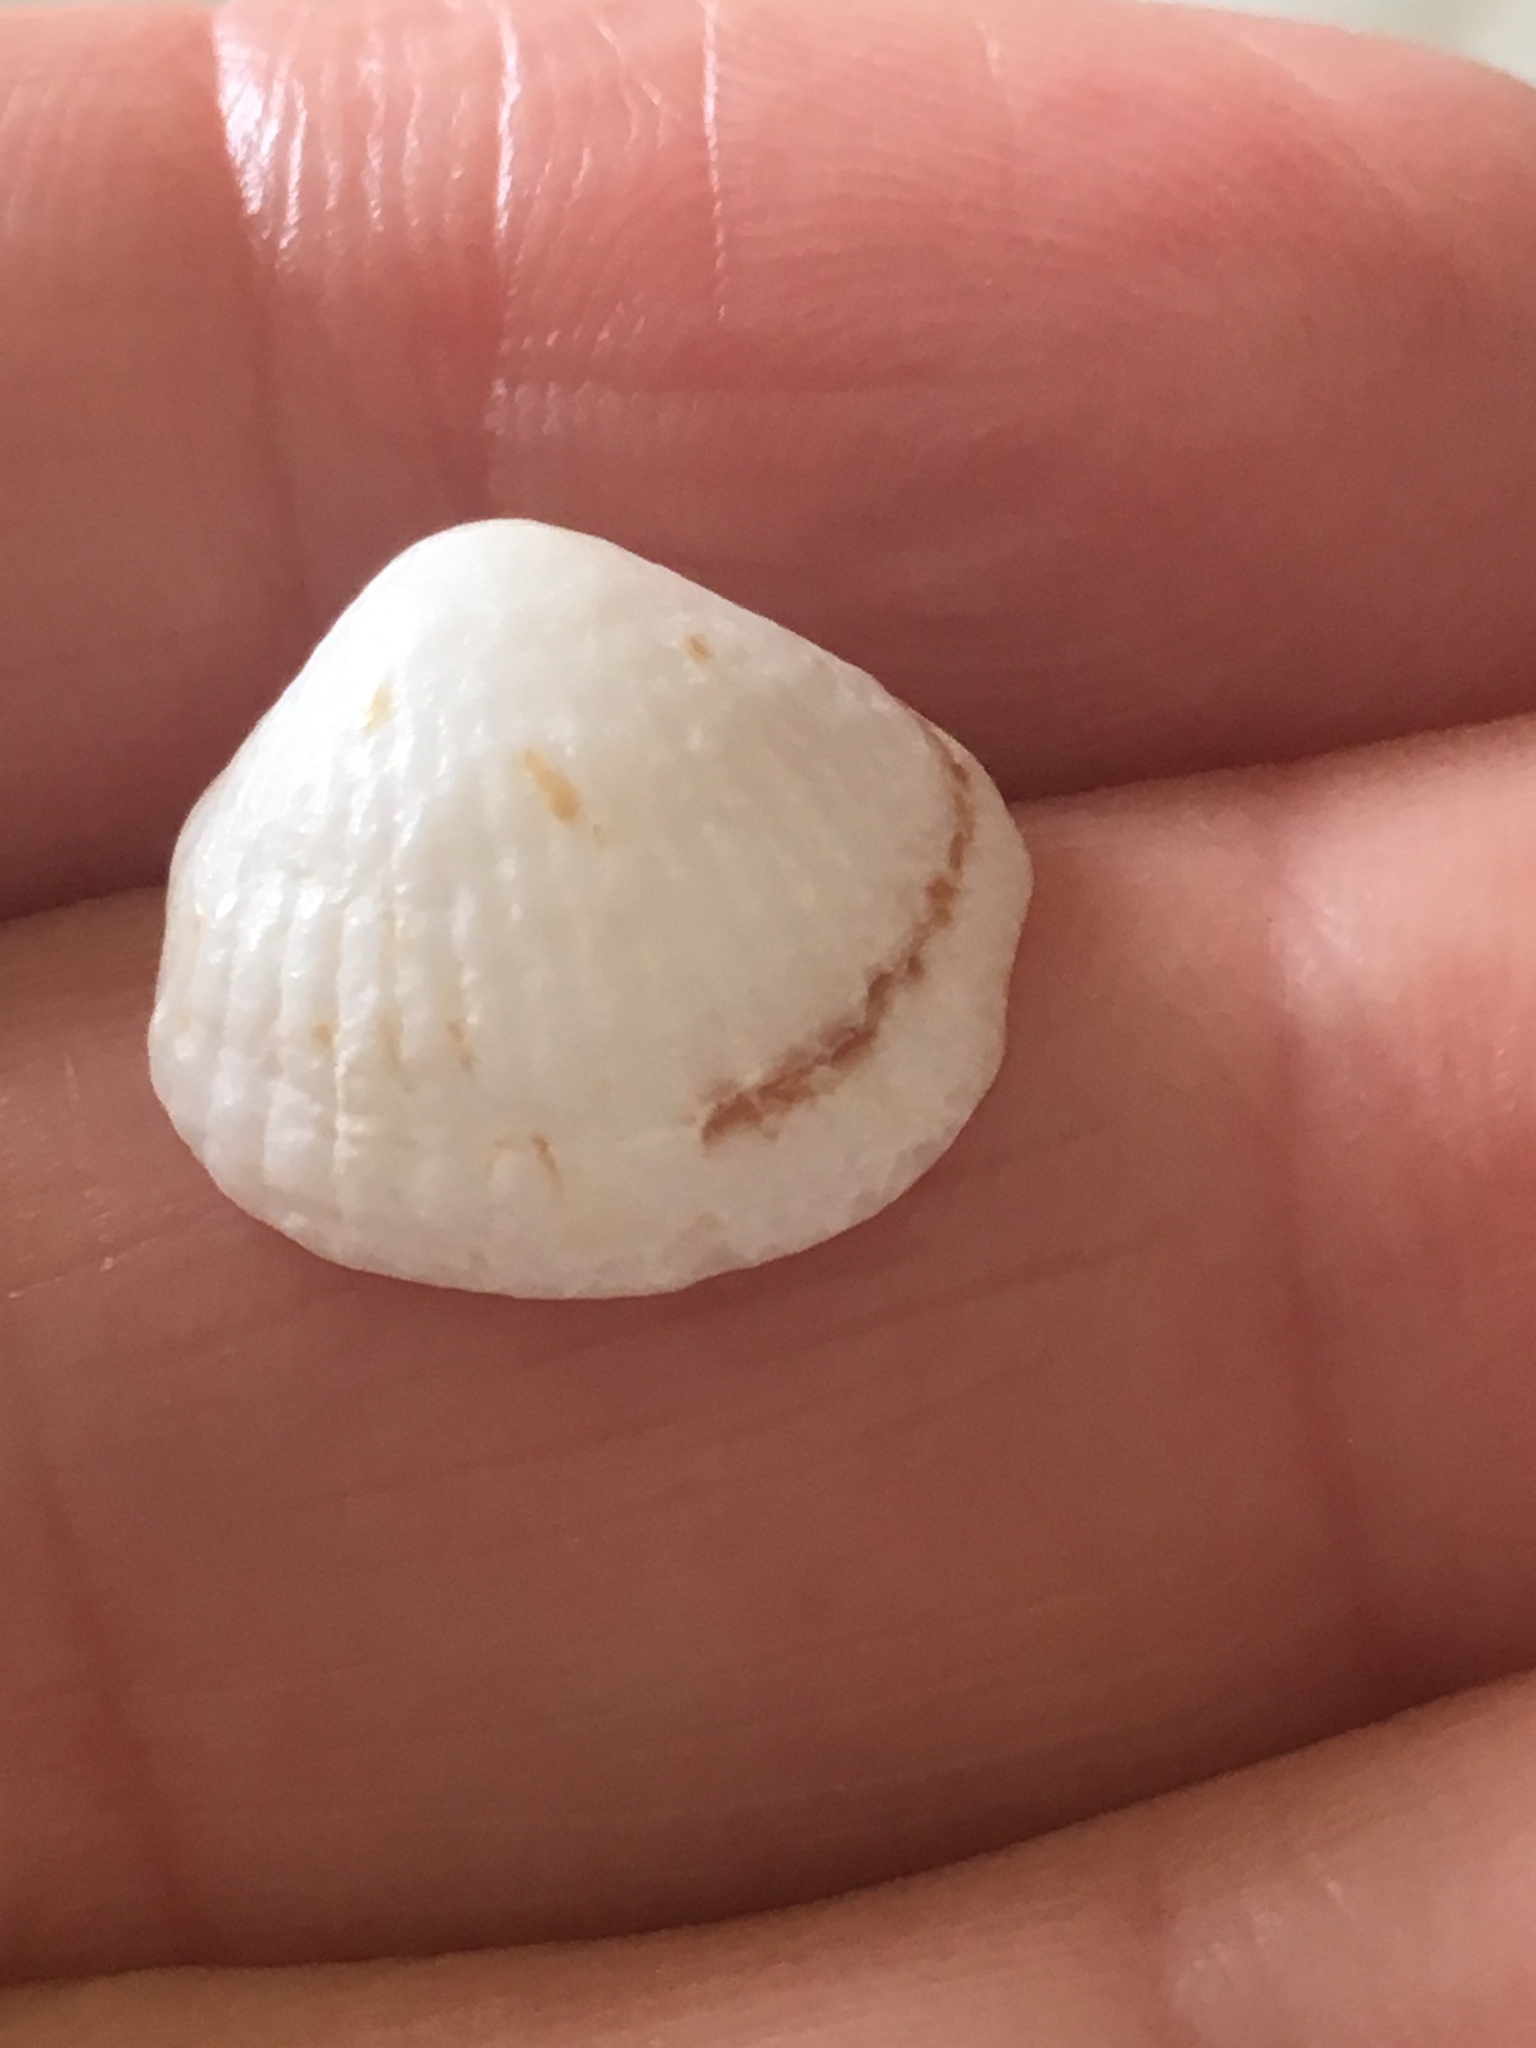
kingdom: Animalia
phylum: Mollusca
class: Bivalvia
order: Arcida
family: Glycymerididae
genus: Tucetona
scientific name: Tucetona pectinata
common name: Comb bittersweet
